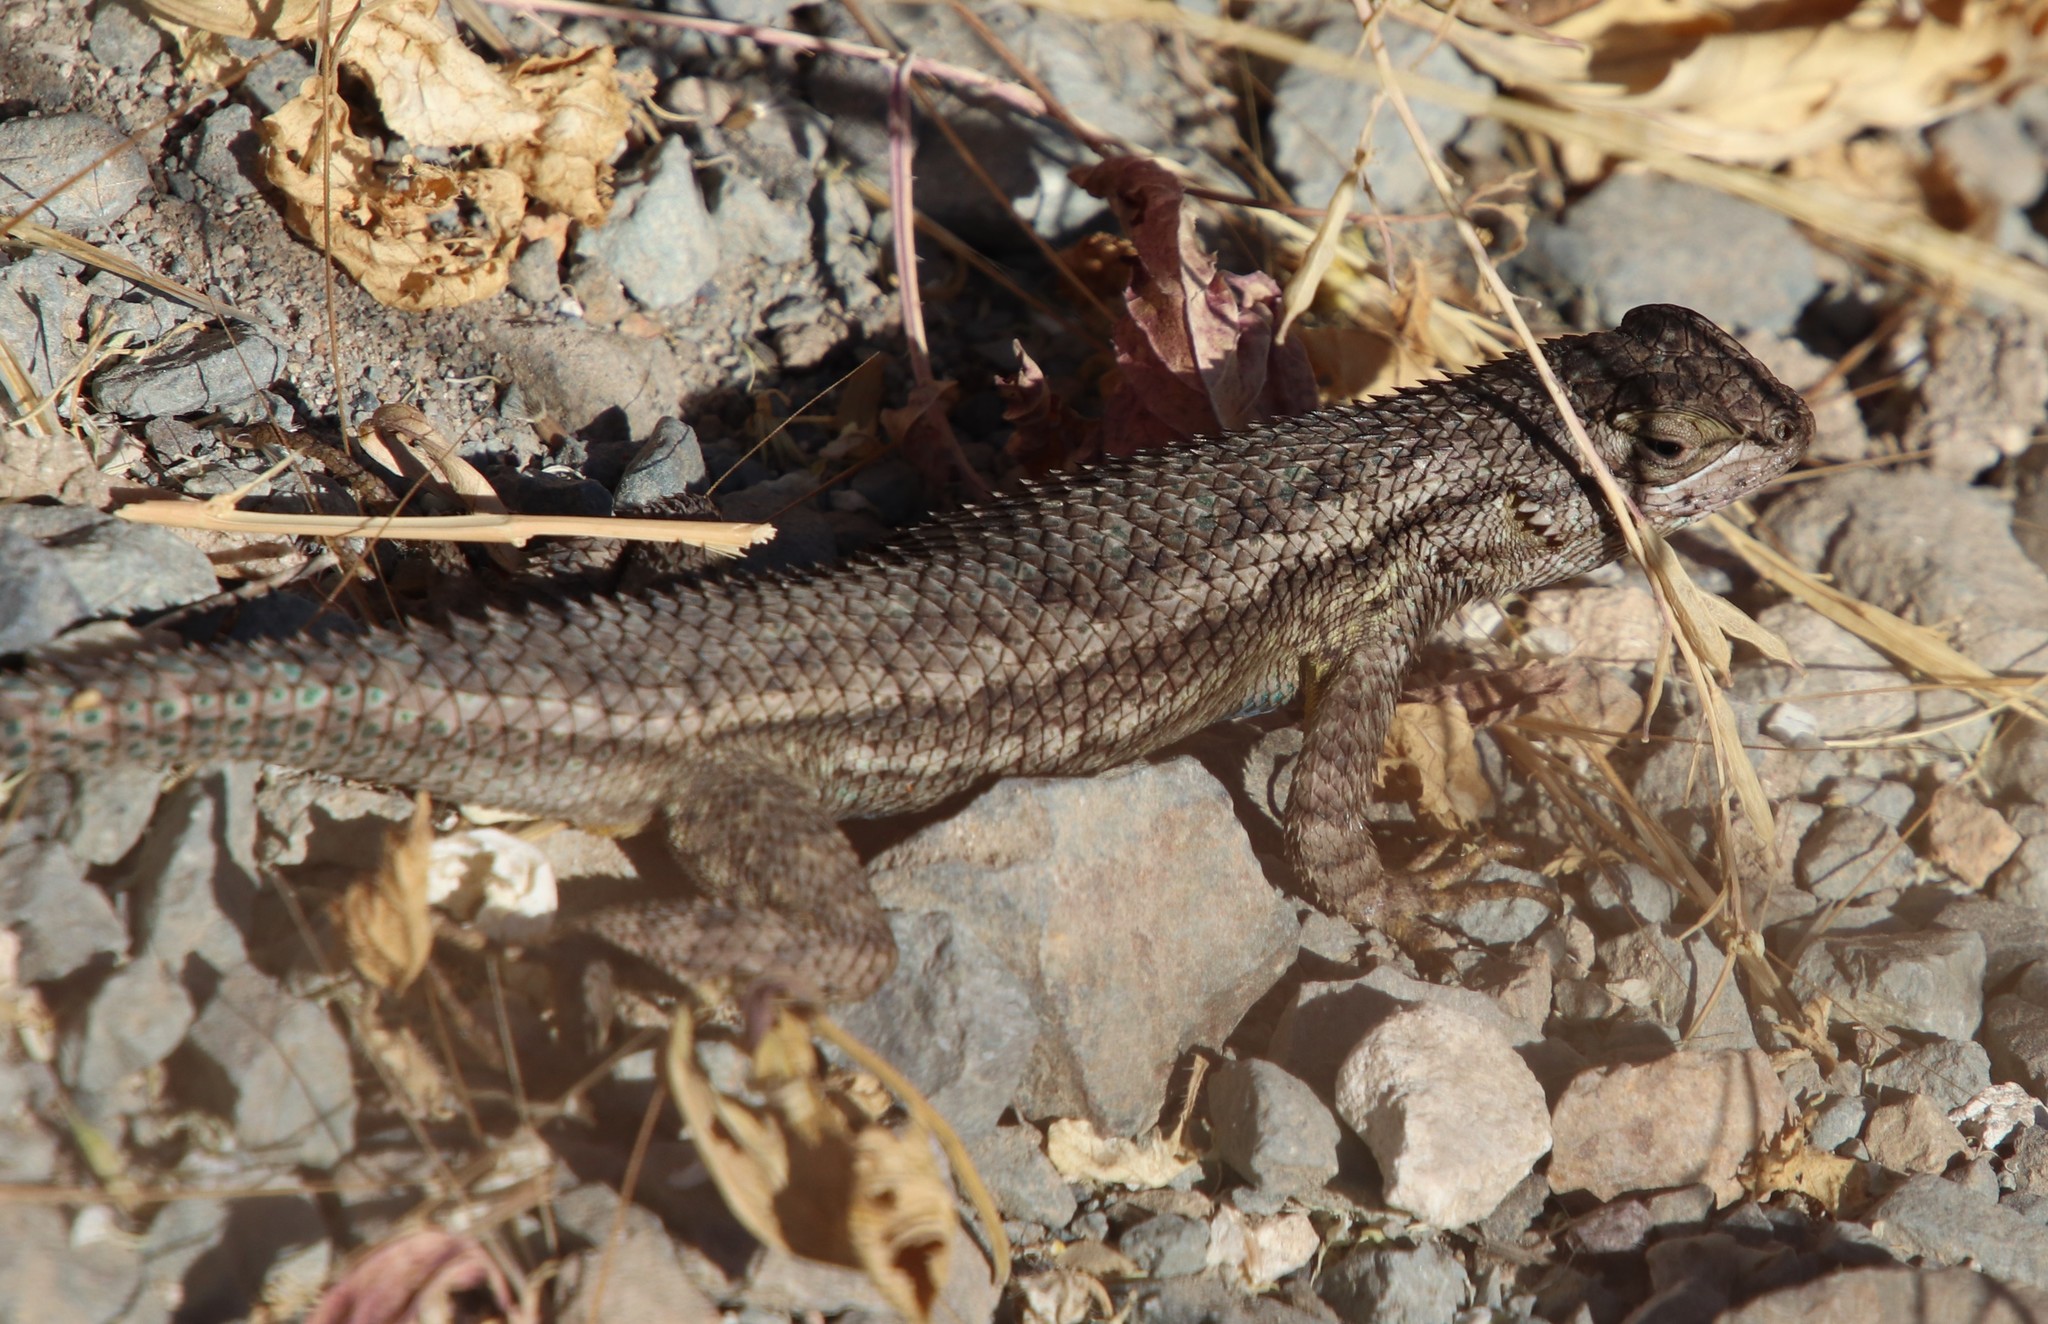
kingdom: Animalia
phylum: Chordata
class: Squamata
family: Phrynosomatidae
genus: Sceloporus
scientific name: Sceloporus occidentalis
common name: Western fence lizard
